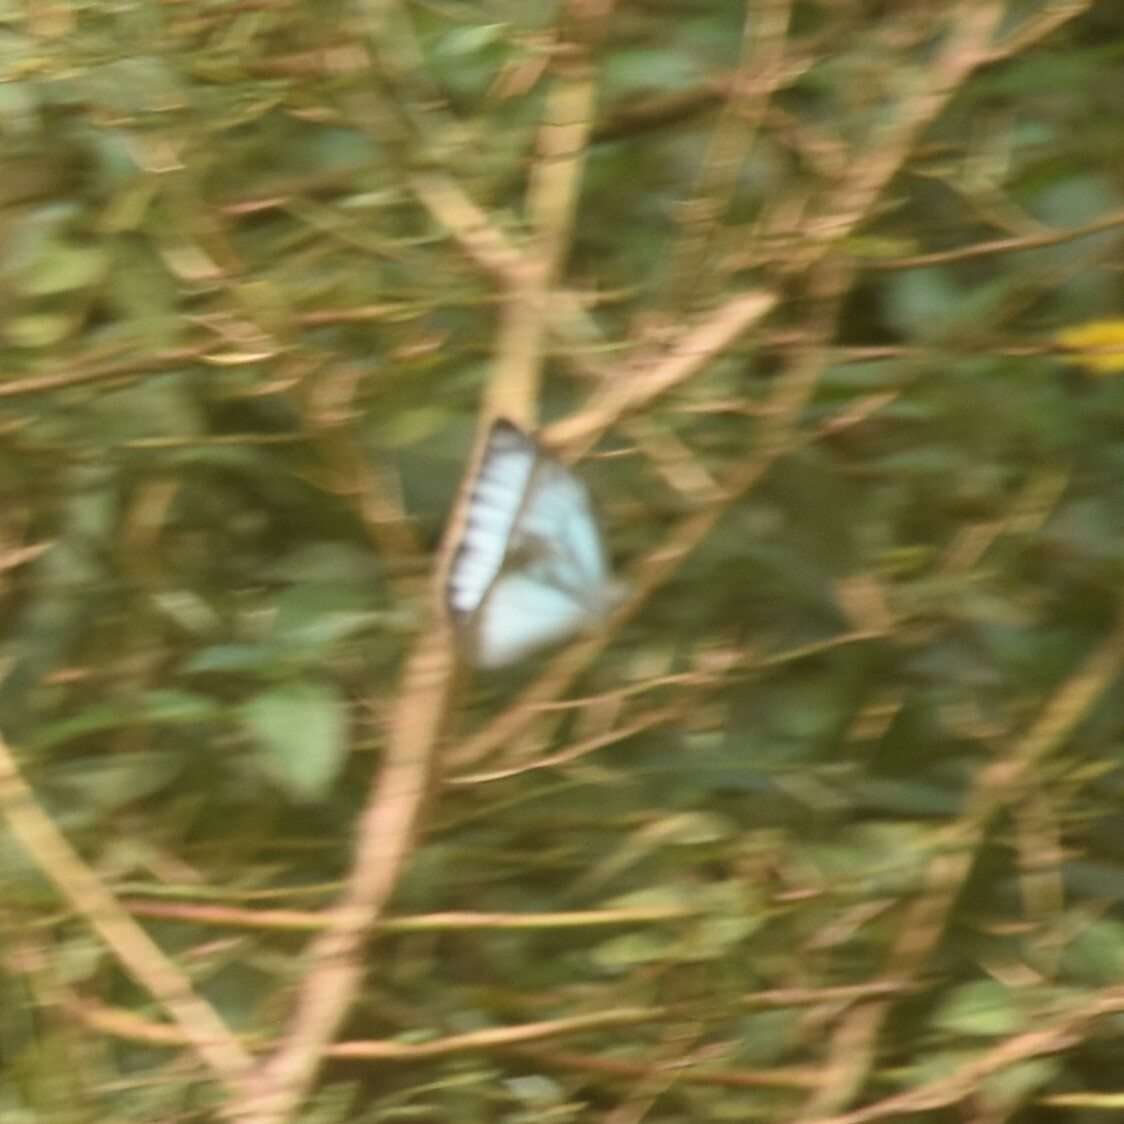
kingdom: Animalia
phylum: Arthropoda
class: Insecta
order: Lepidoptera
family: Pieridae
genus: Pareronia
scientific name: Pareronia hippia
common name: Indian wanderer
